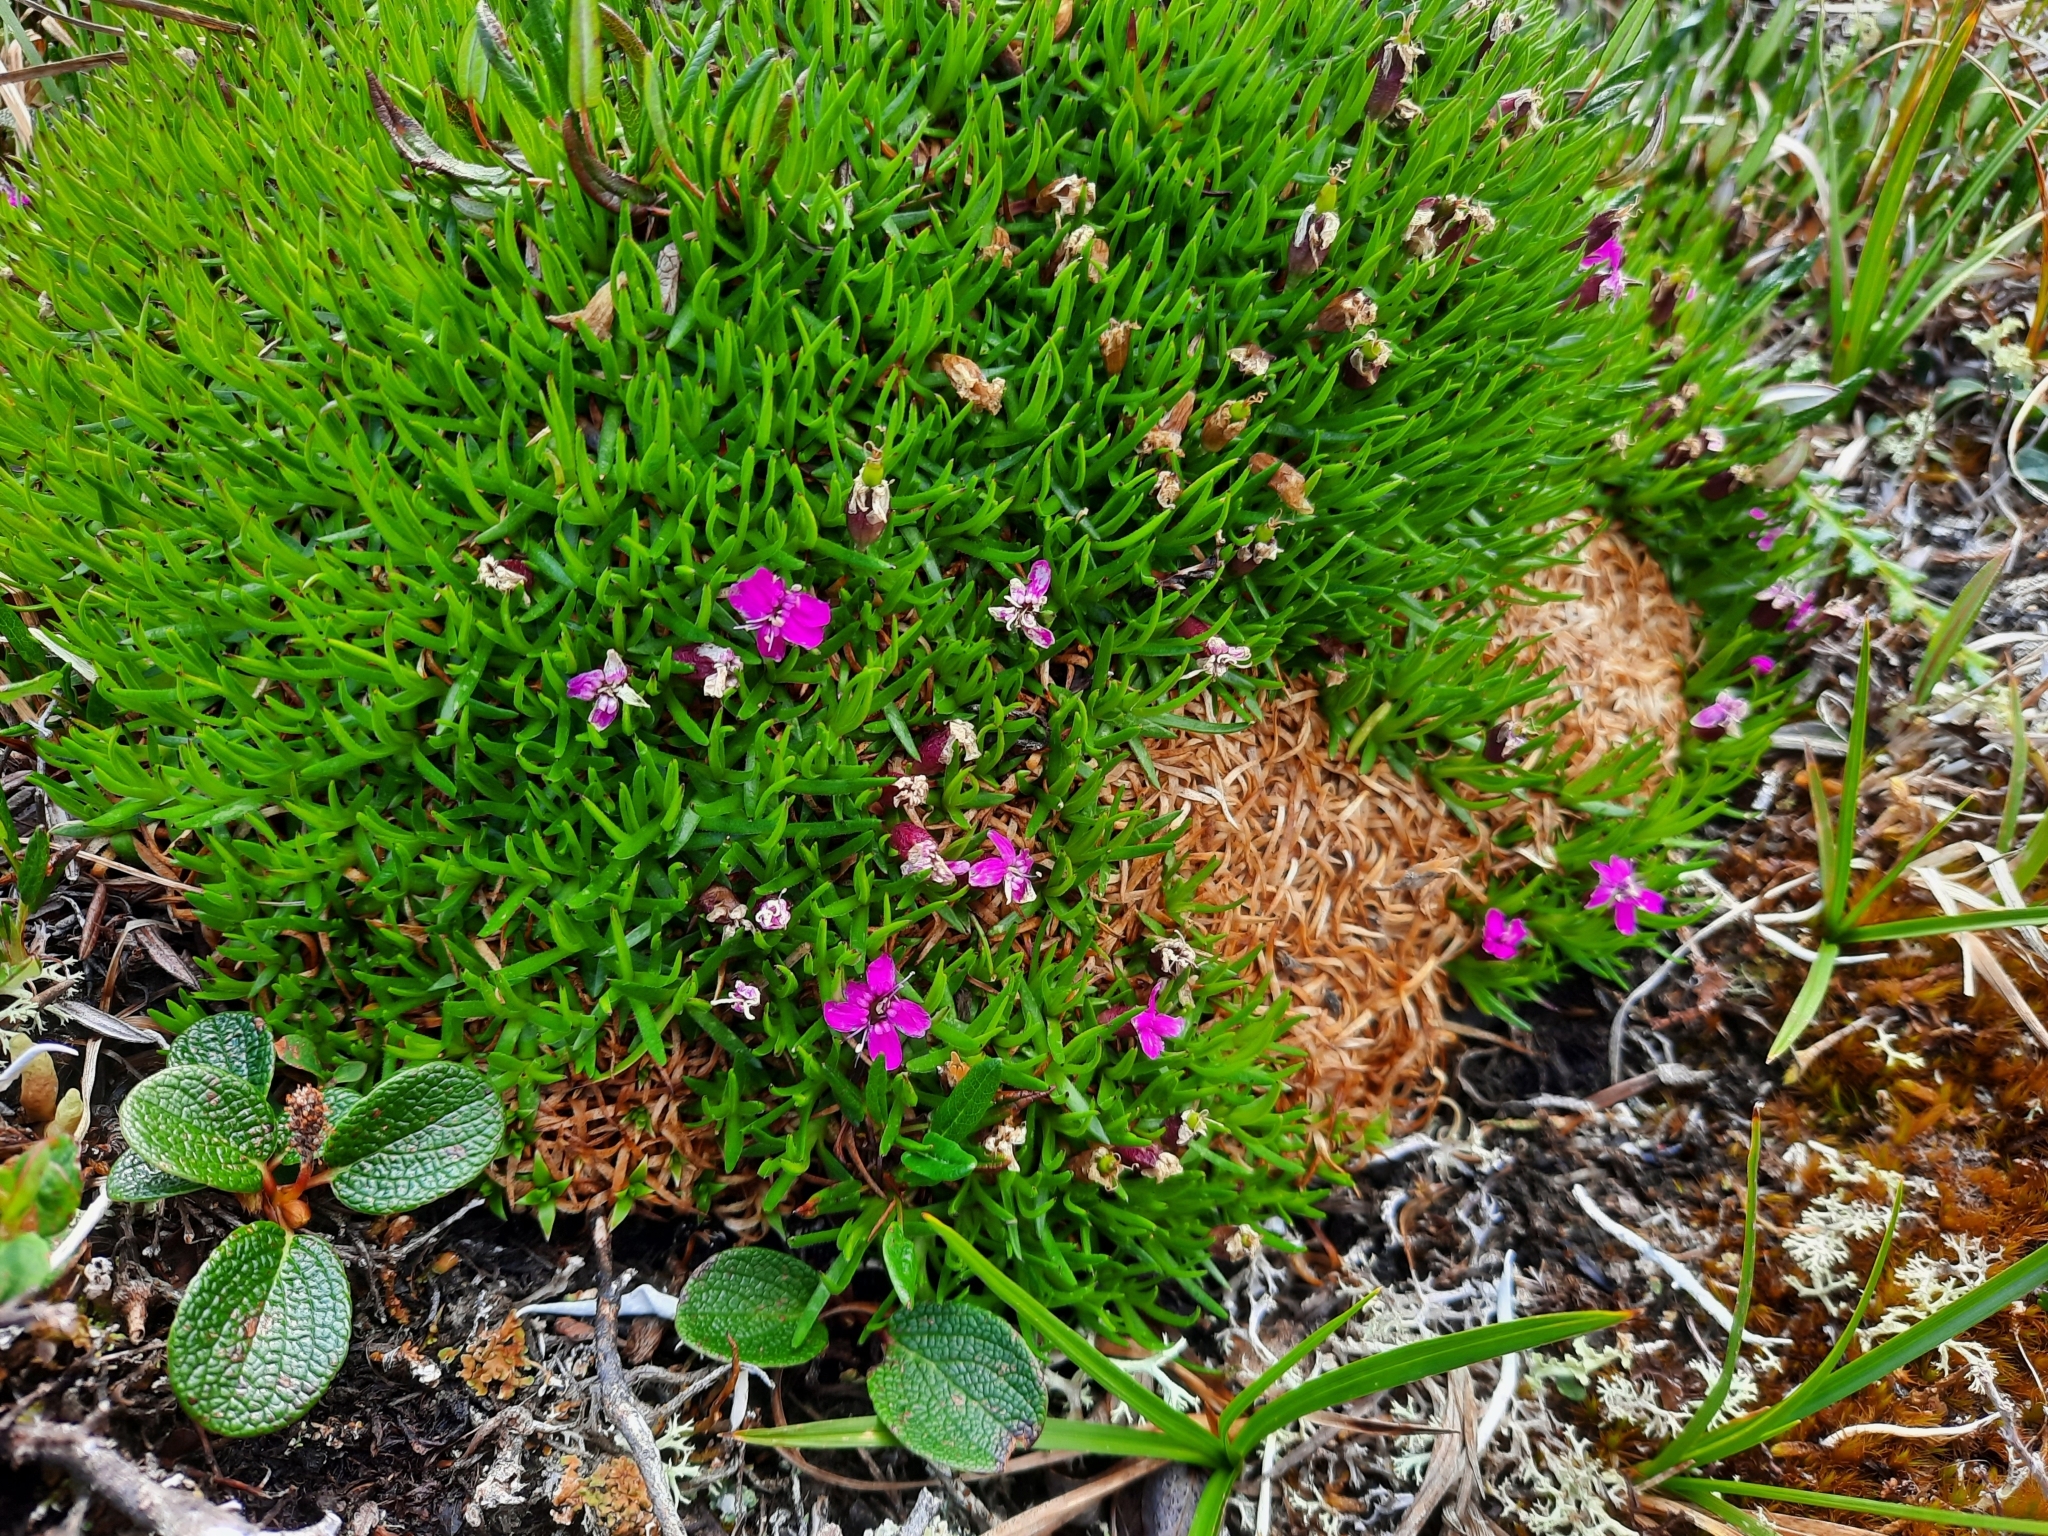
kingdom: Plantae
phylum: Tracheophyta
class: Magnoliopsida
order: Caryophyllales
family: Caryophyllaceae
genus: Silene
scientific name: Silene acaulis
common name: Moss campion
